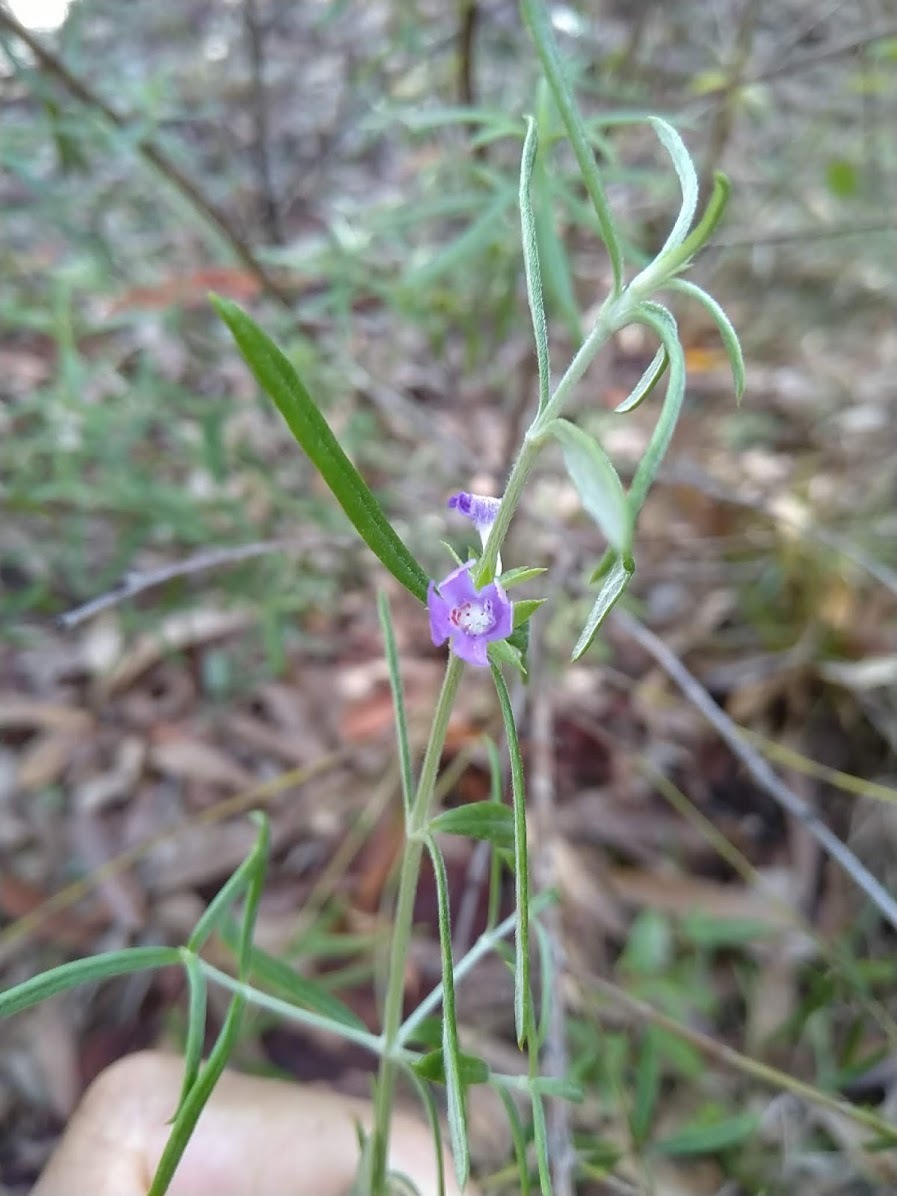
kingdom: Plantae
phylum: Tracheophyta
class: Magnoliopsida
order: Lamiales
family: Lamiaceae
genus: Westringia
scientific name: Westringia eremicola
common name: Slender western-rosemary
